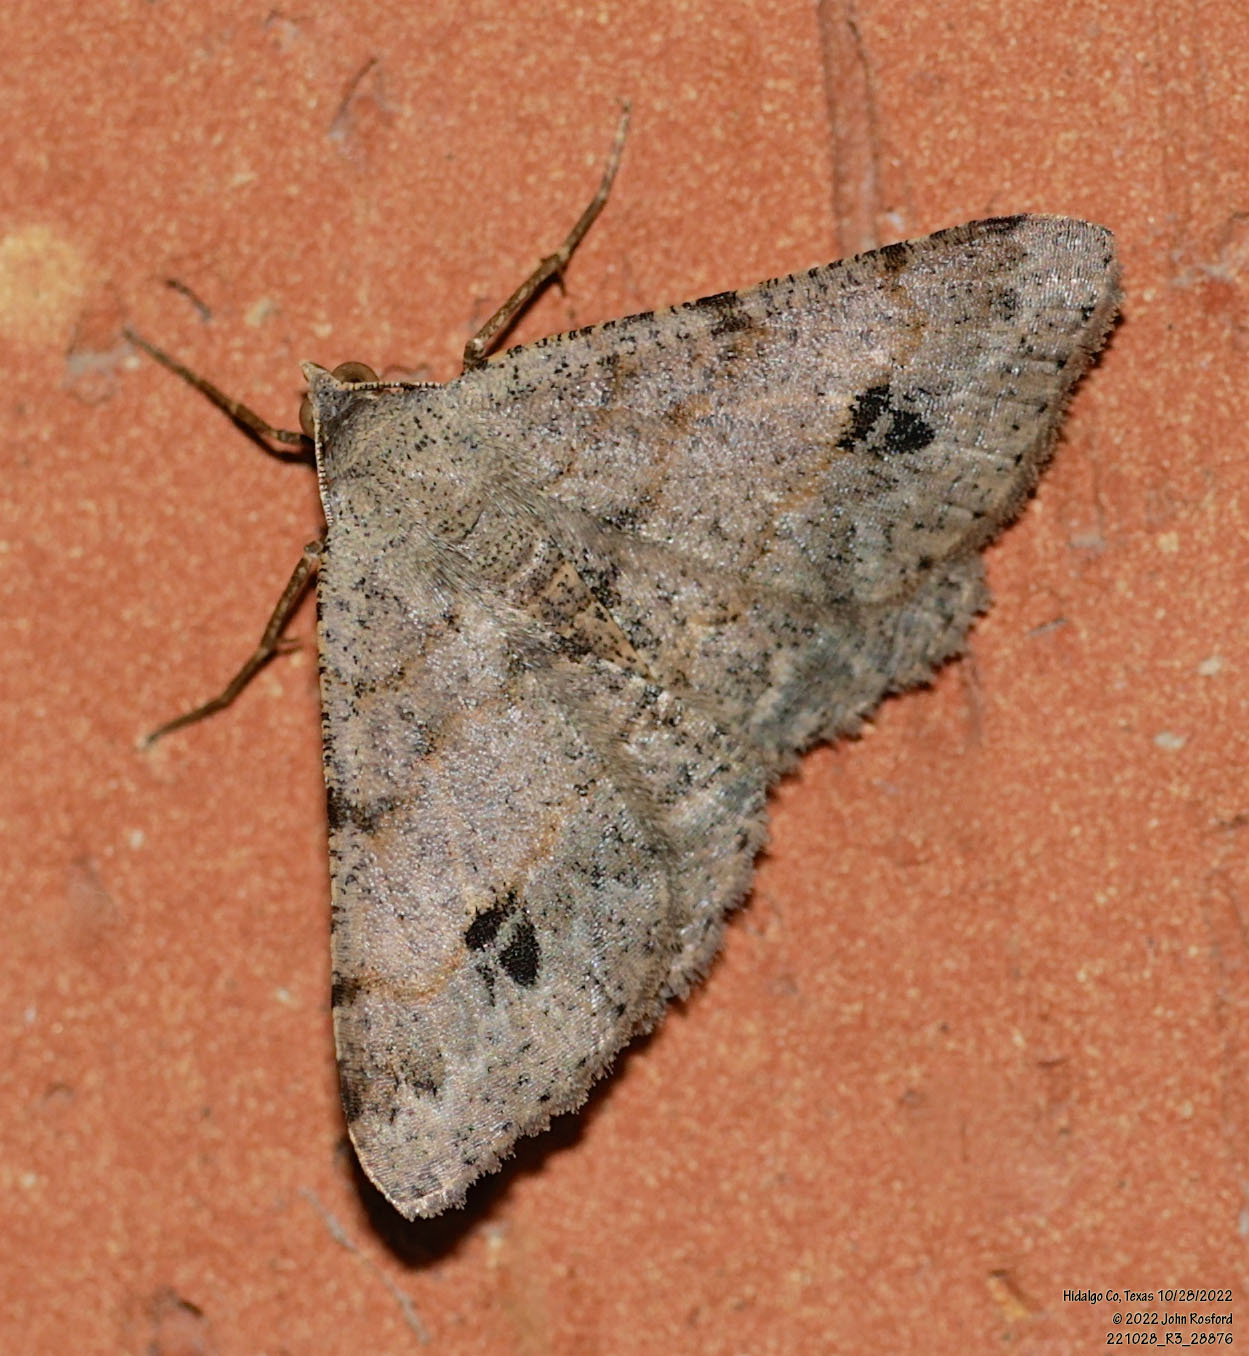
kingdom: Animalia
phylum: Arthropoda
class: Insecta
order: Lepidoptera
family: Geometridae
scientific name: Geometridae
